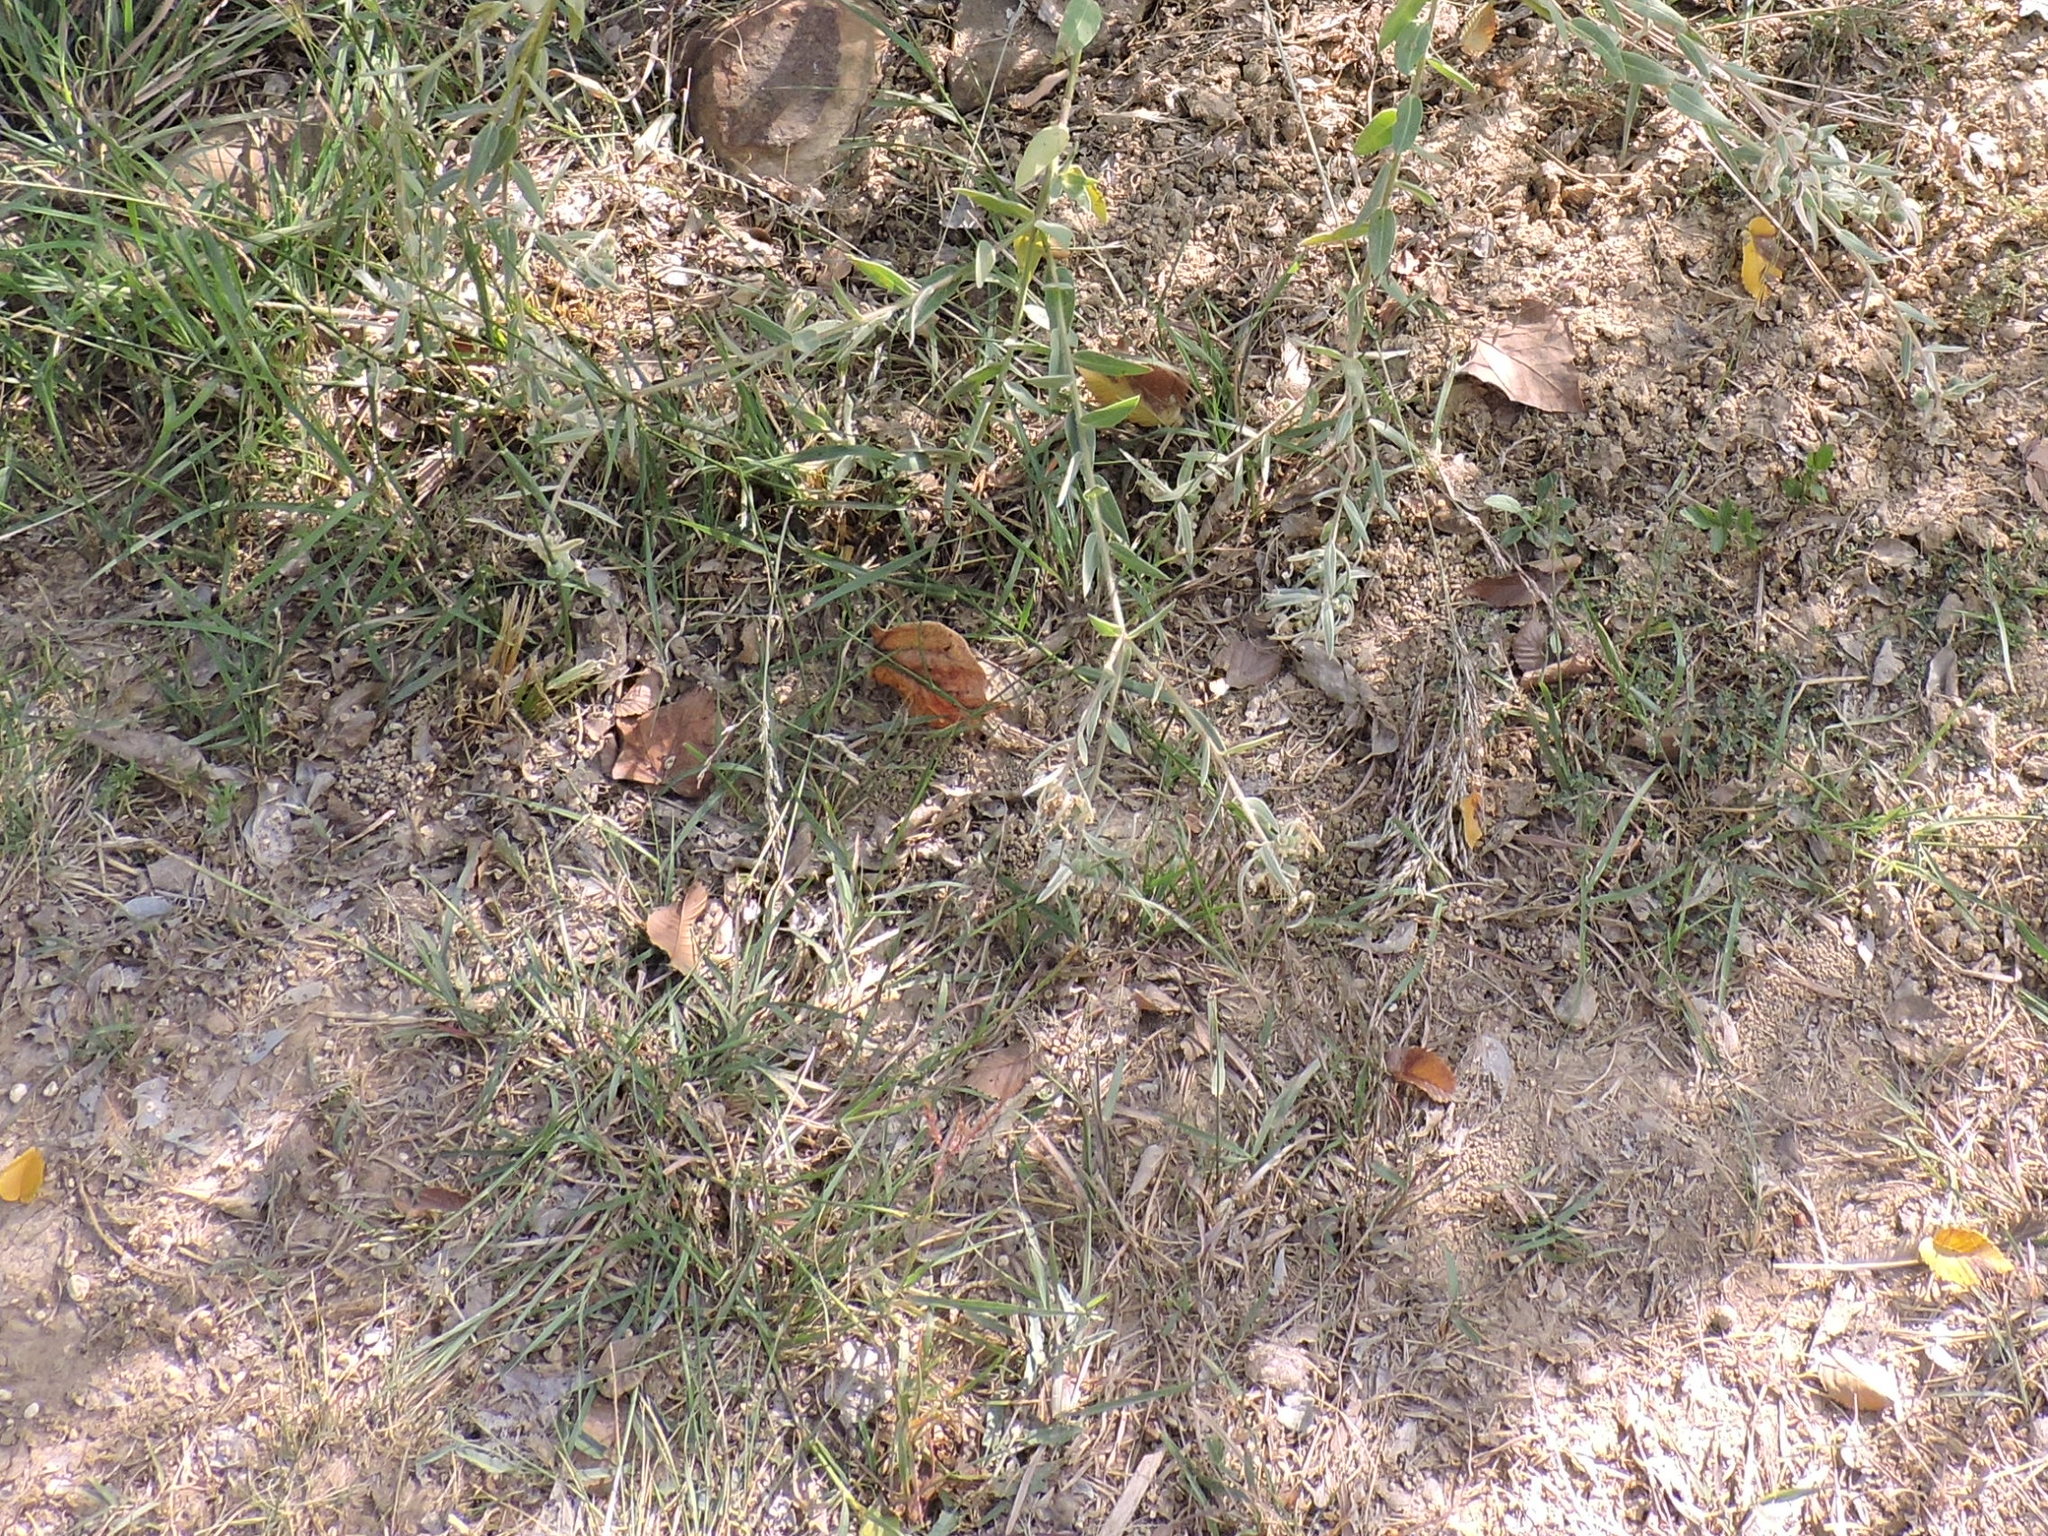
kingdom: Plantae
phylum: Tracheophyta
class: Liliopsida
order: Poales
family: Poaceae
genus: Bouteloua
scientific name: Bouteloua curtipendula
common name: Side-oats grama
